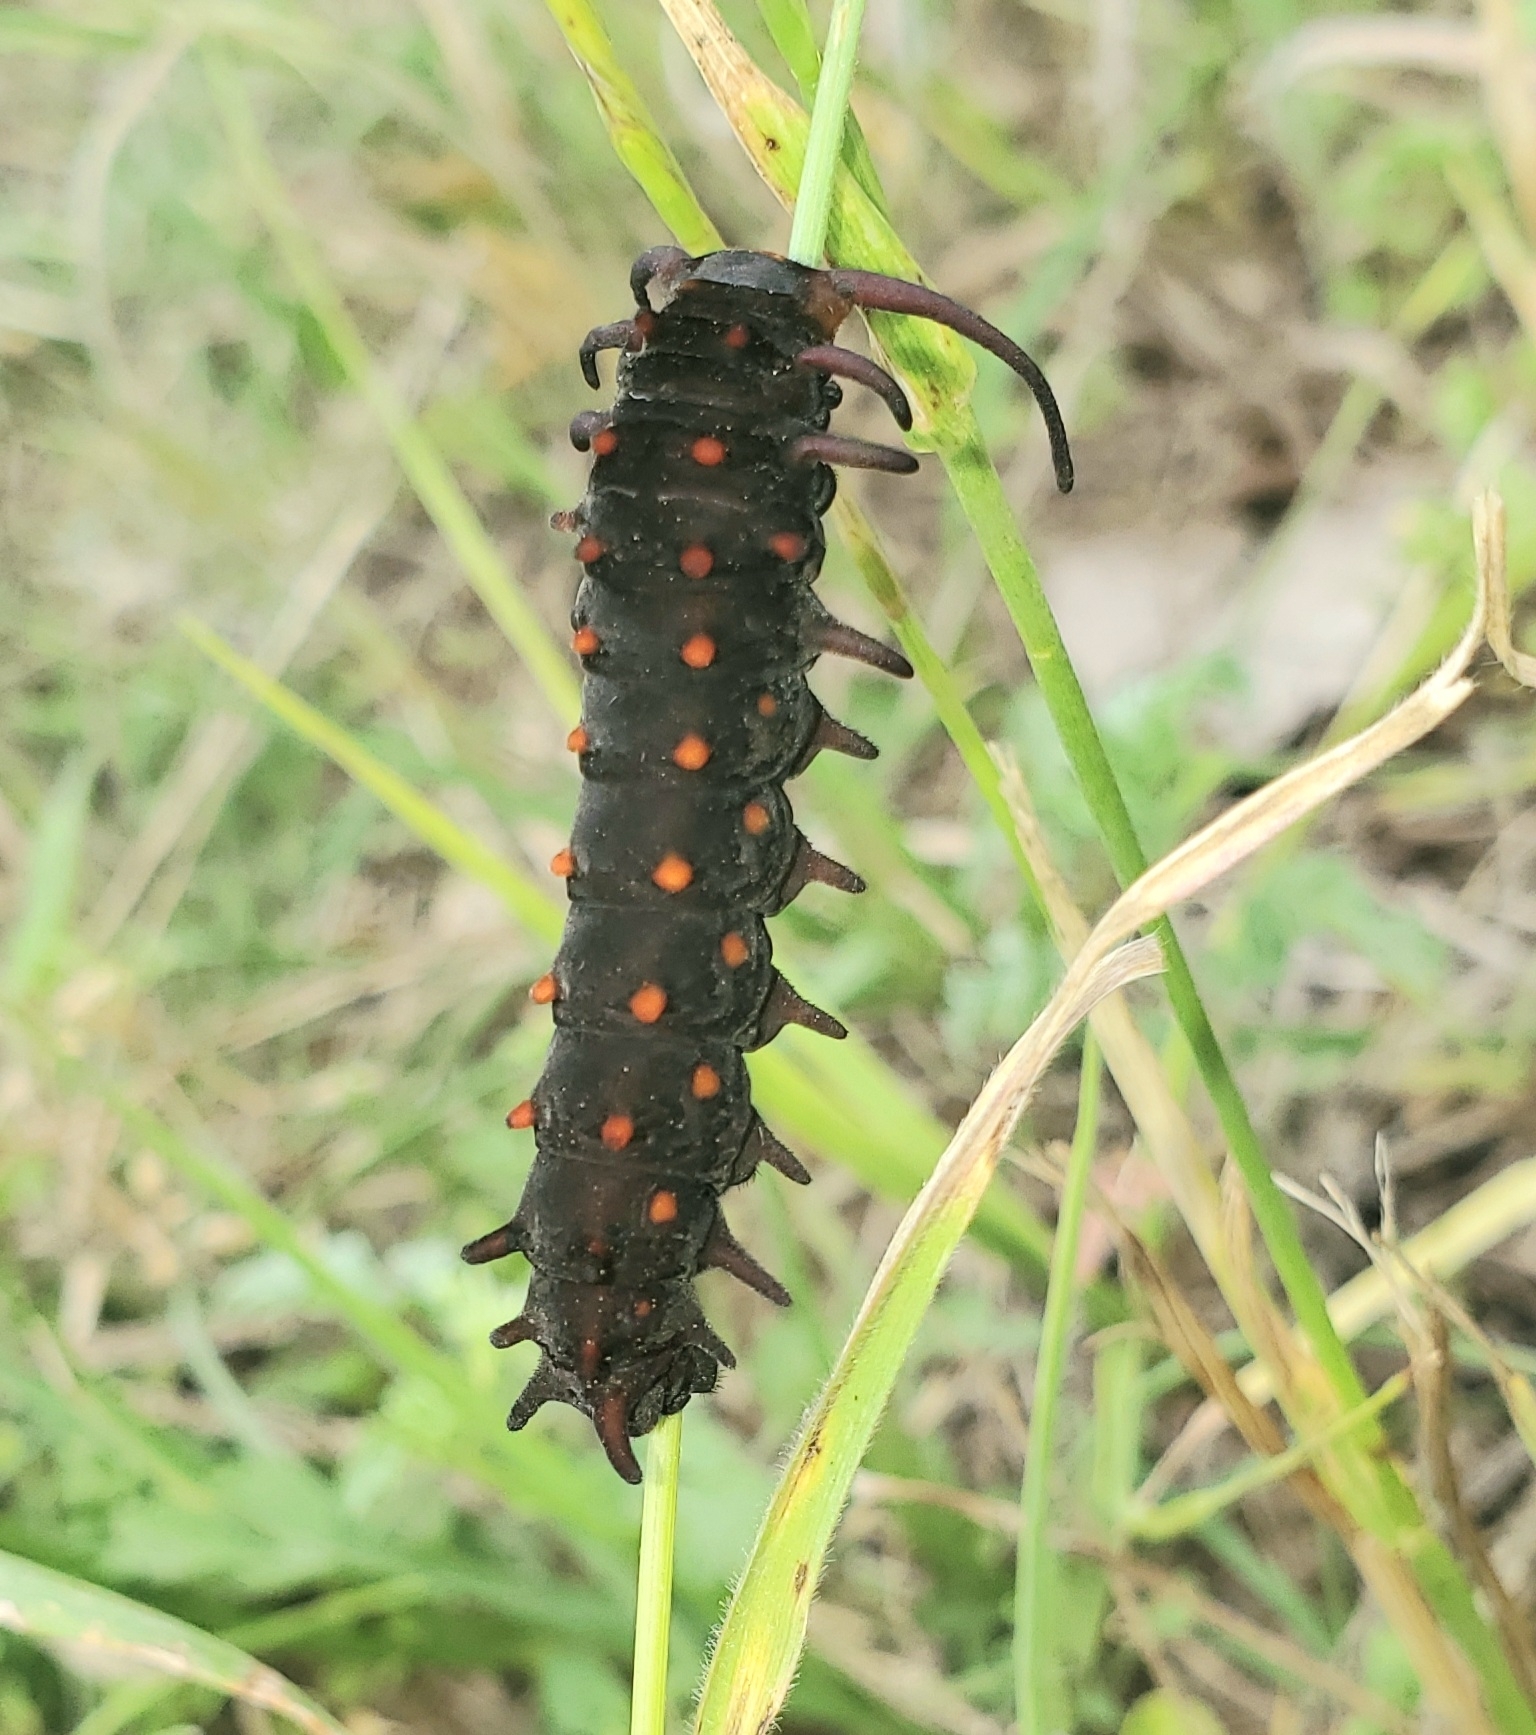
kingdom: Animalia
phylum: Arthropoda
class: Insecta
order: Lepidoptera
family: Papilionidae
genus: Battus
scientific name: Battus philenor
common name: Pipevine swallowtail
